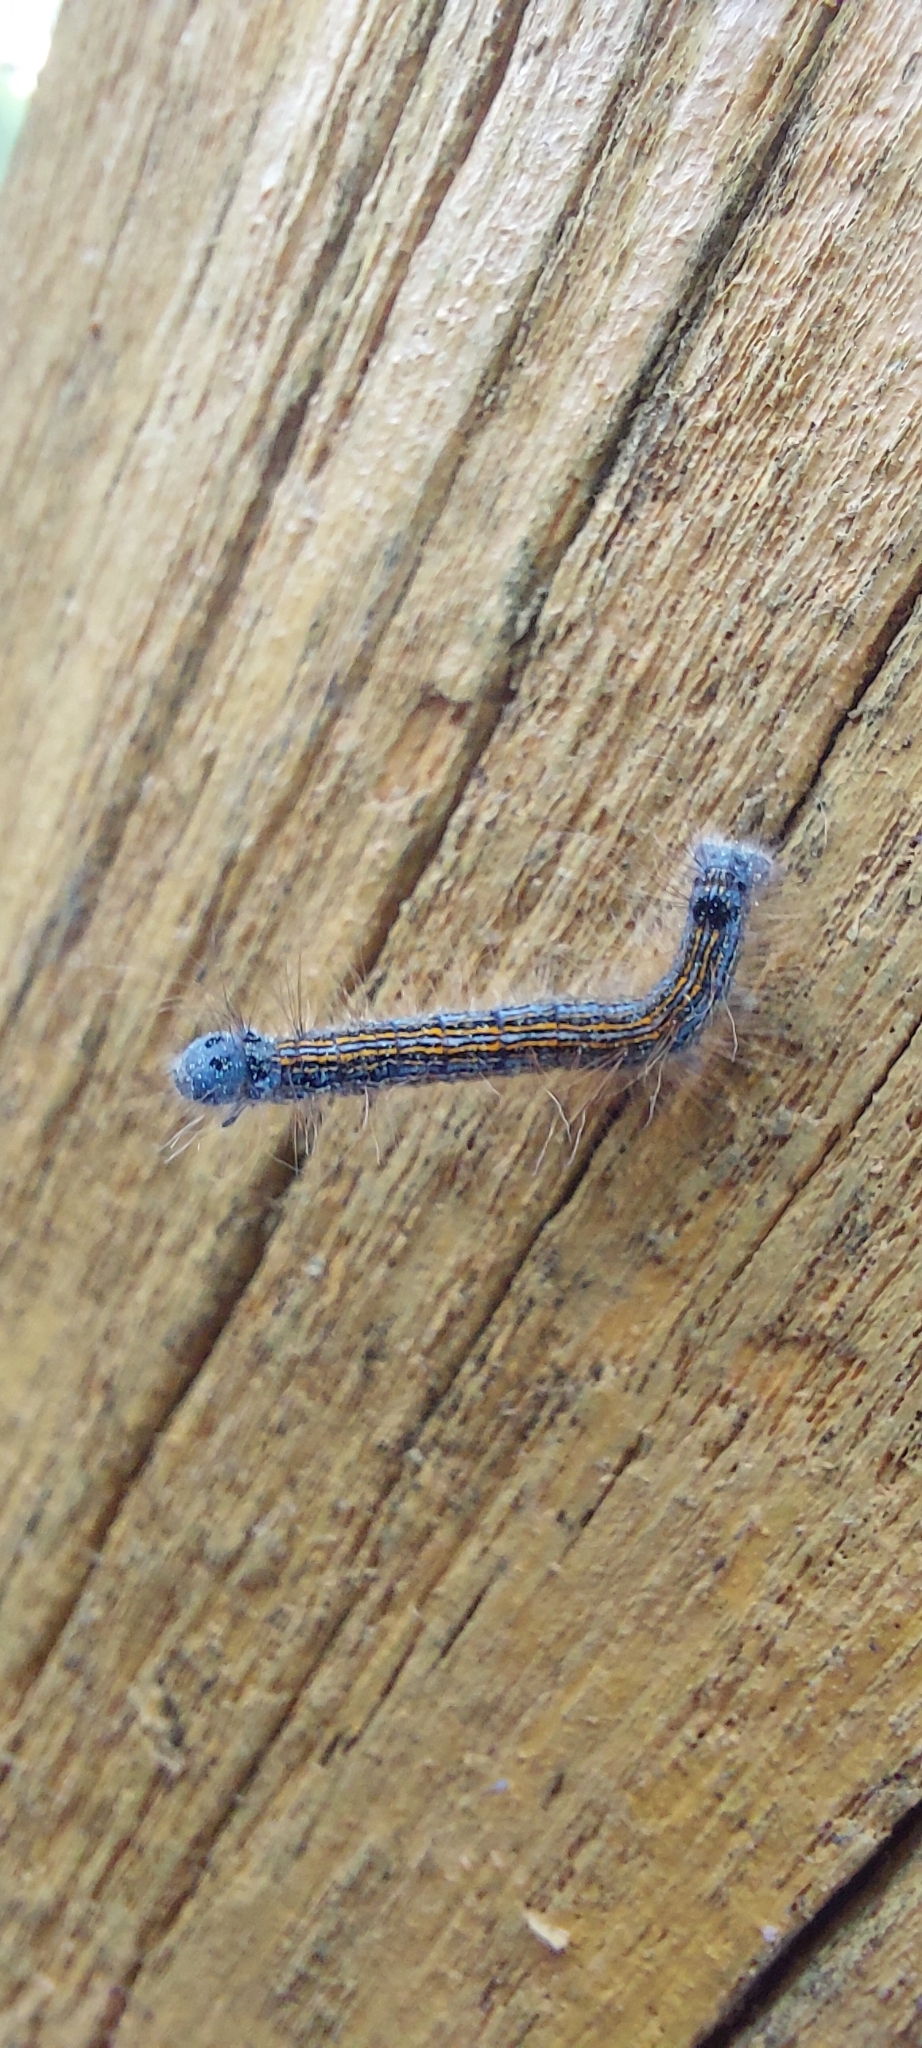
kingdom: Animalia
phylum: Arthropoda
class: Insecta
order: Lepidoptera
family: Lasiocampidae
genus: Malacosoma
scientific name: Malacosoma neustria
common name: The lackey
